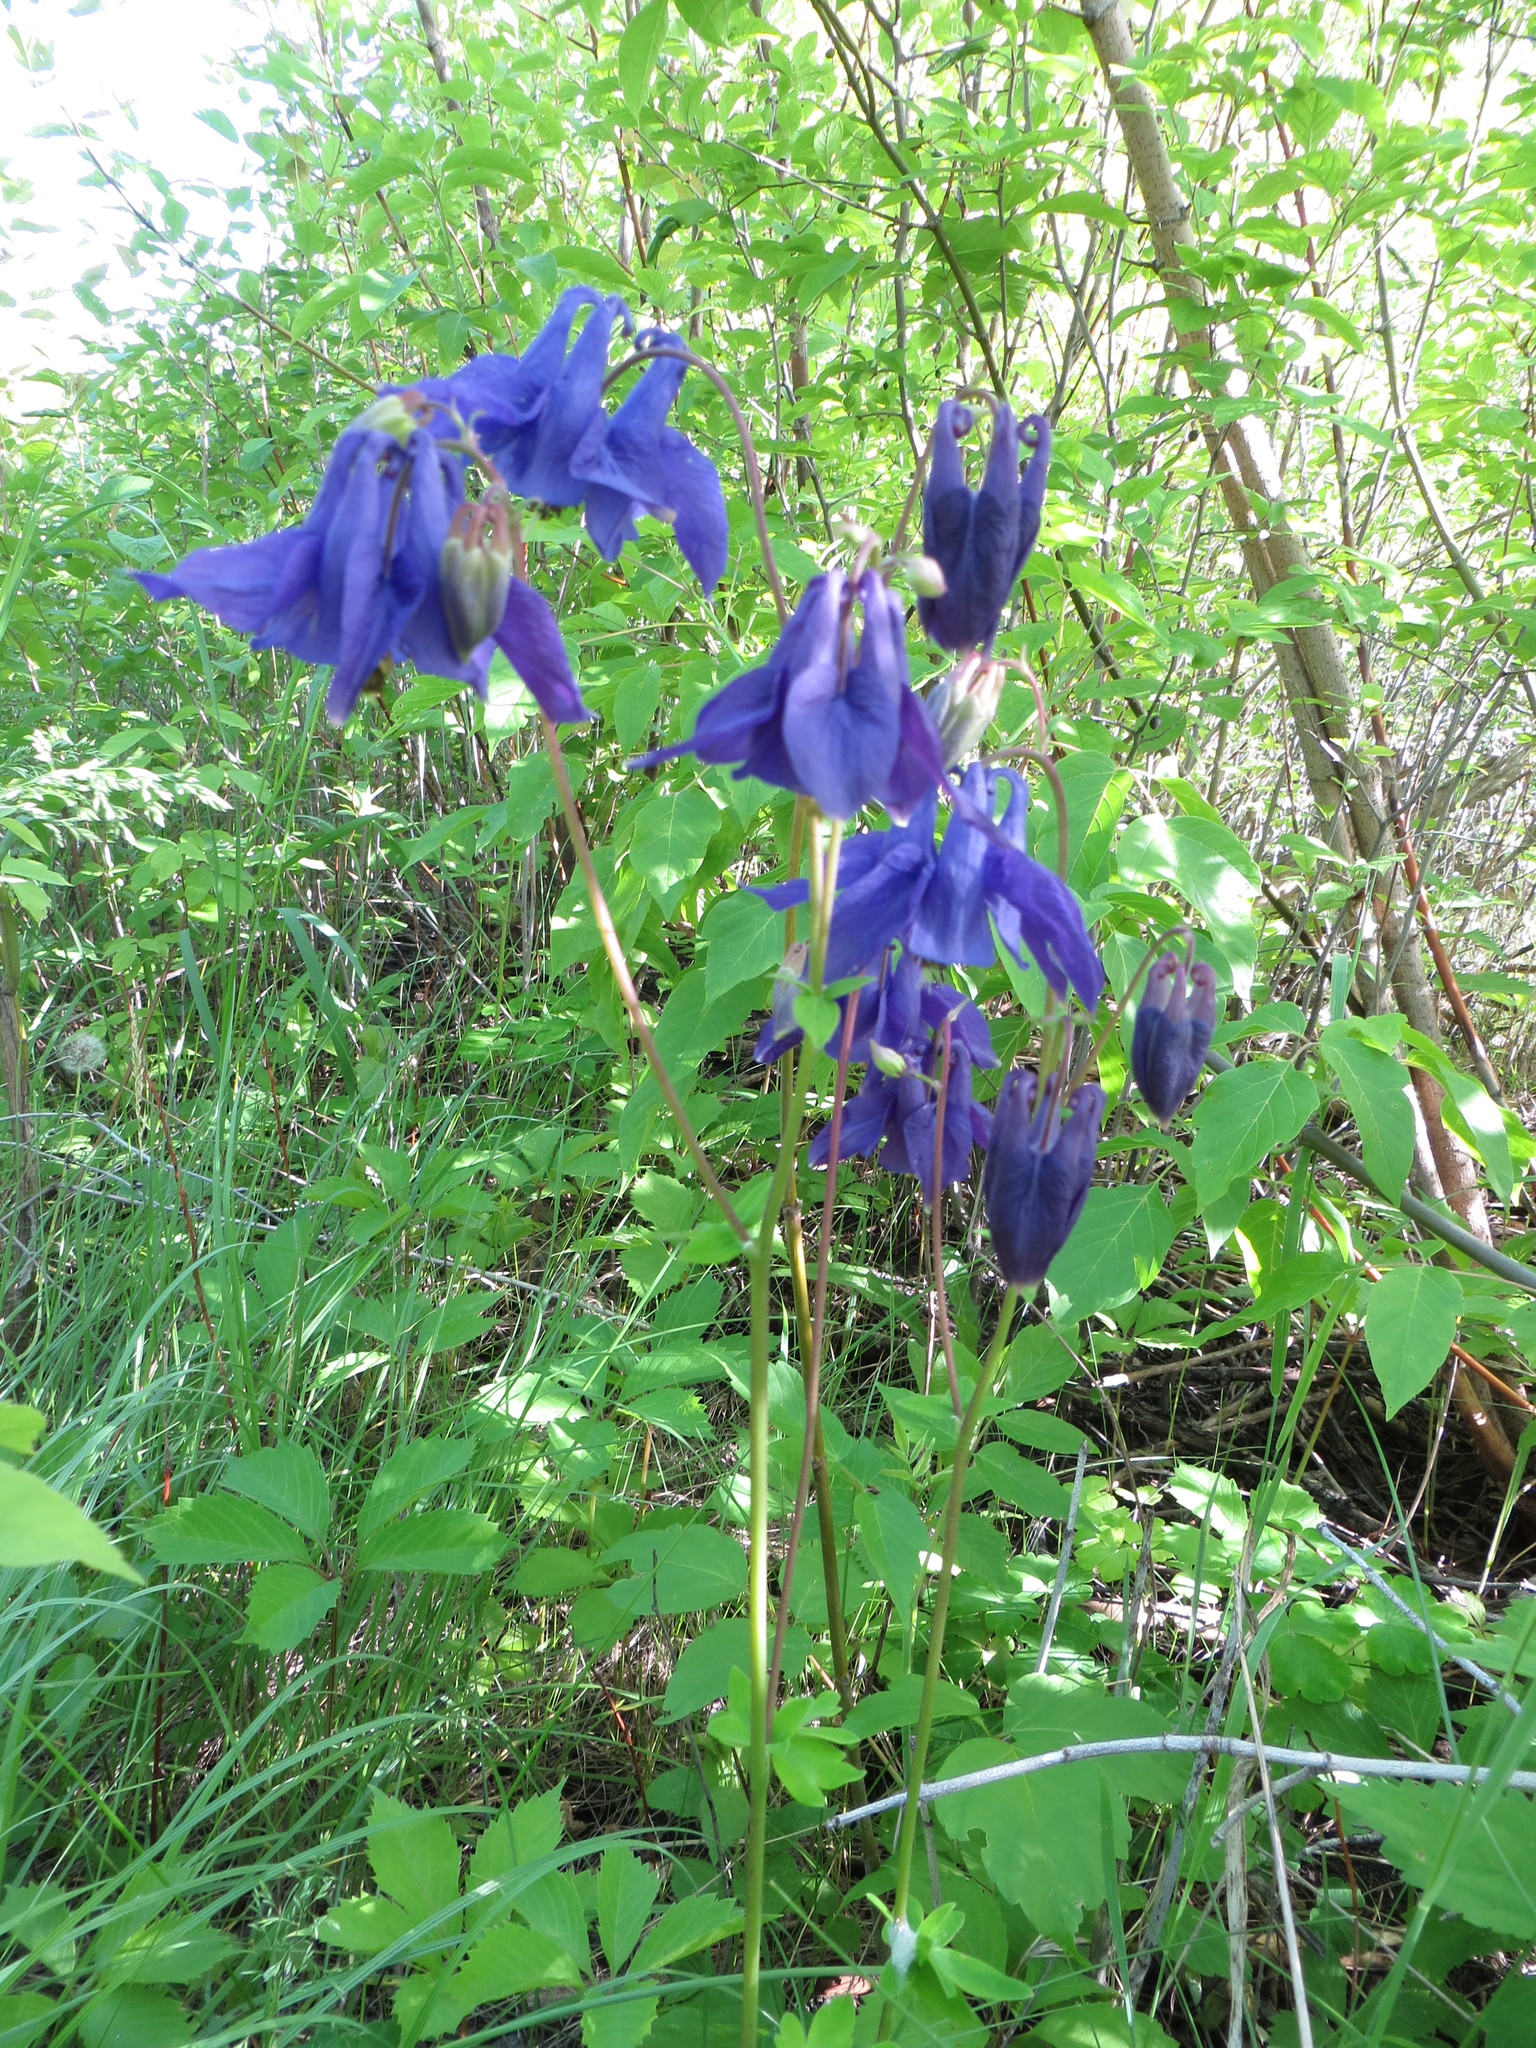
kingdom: Plantae
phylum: Tracheophyta
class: Magnoliopsida
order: Ranunculales
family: Ranunculaceae
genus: Aquilegia
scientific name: Aquilegia vulgaris
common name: Columbine
